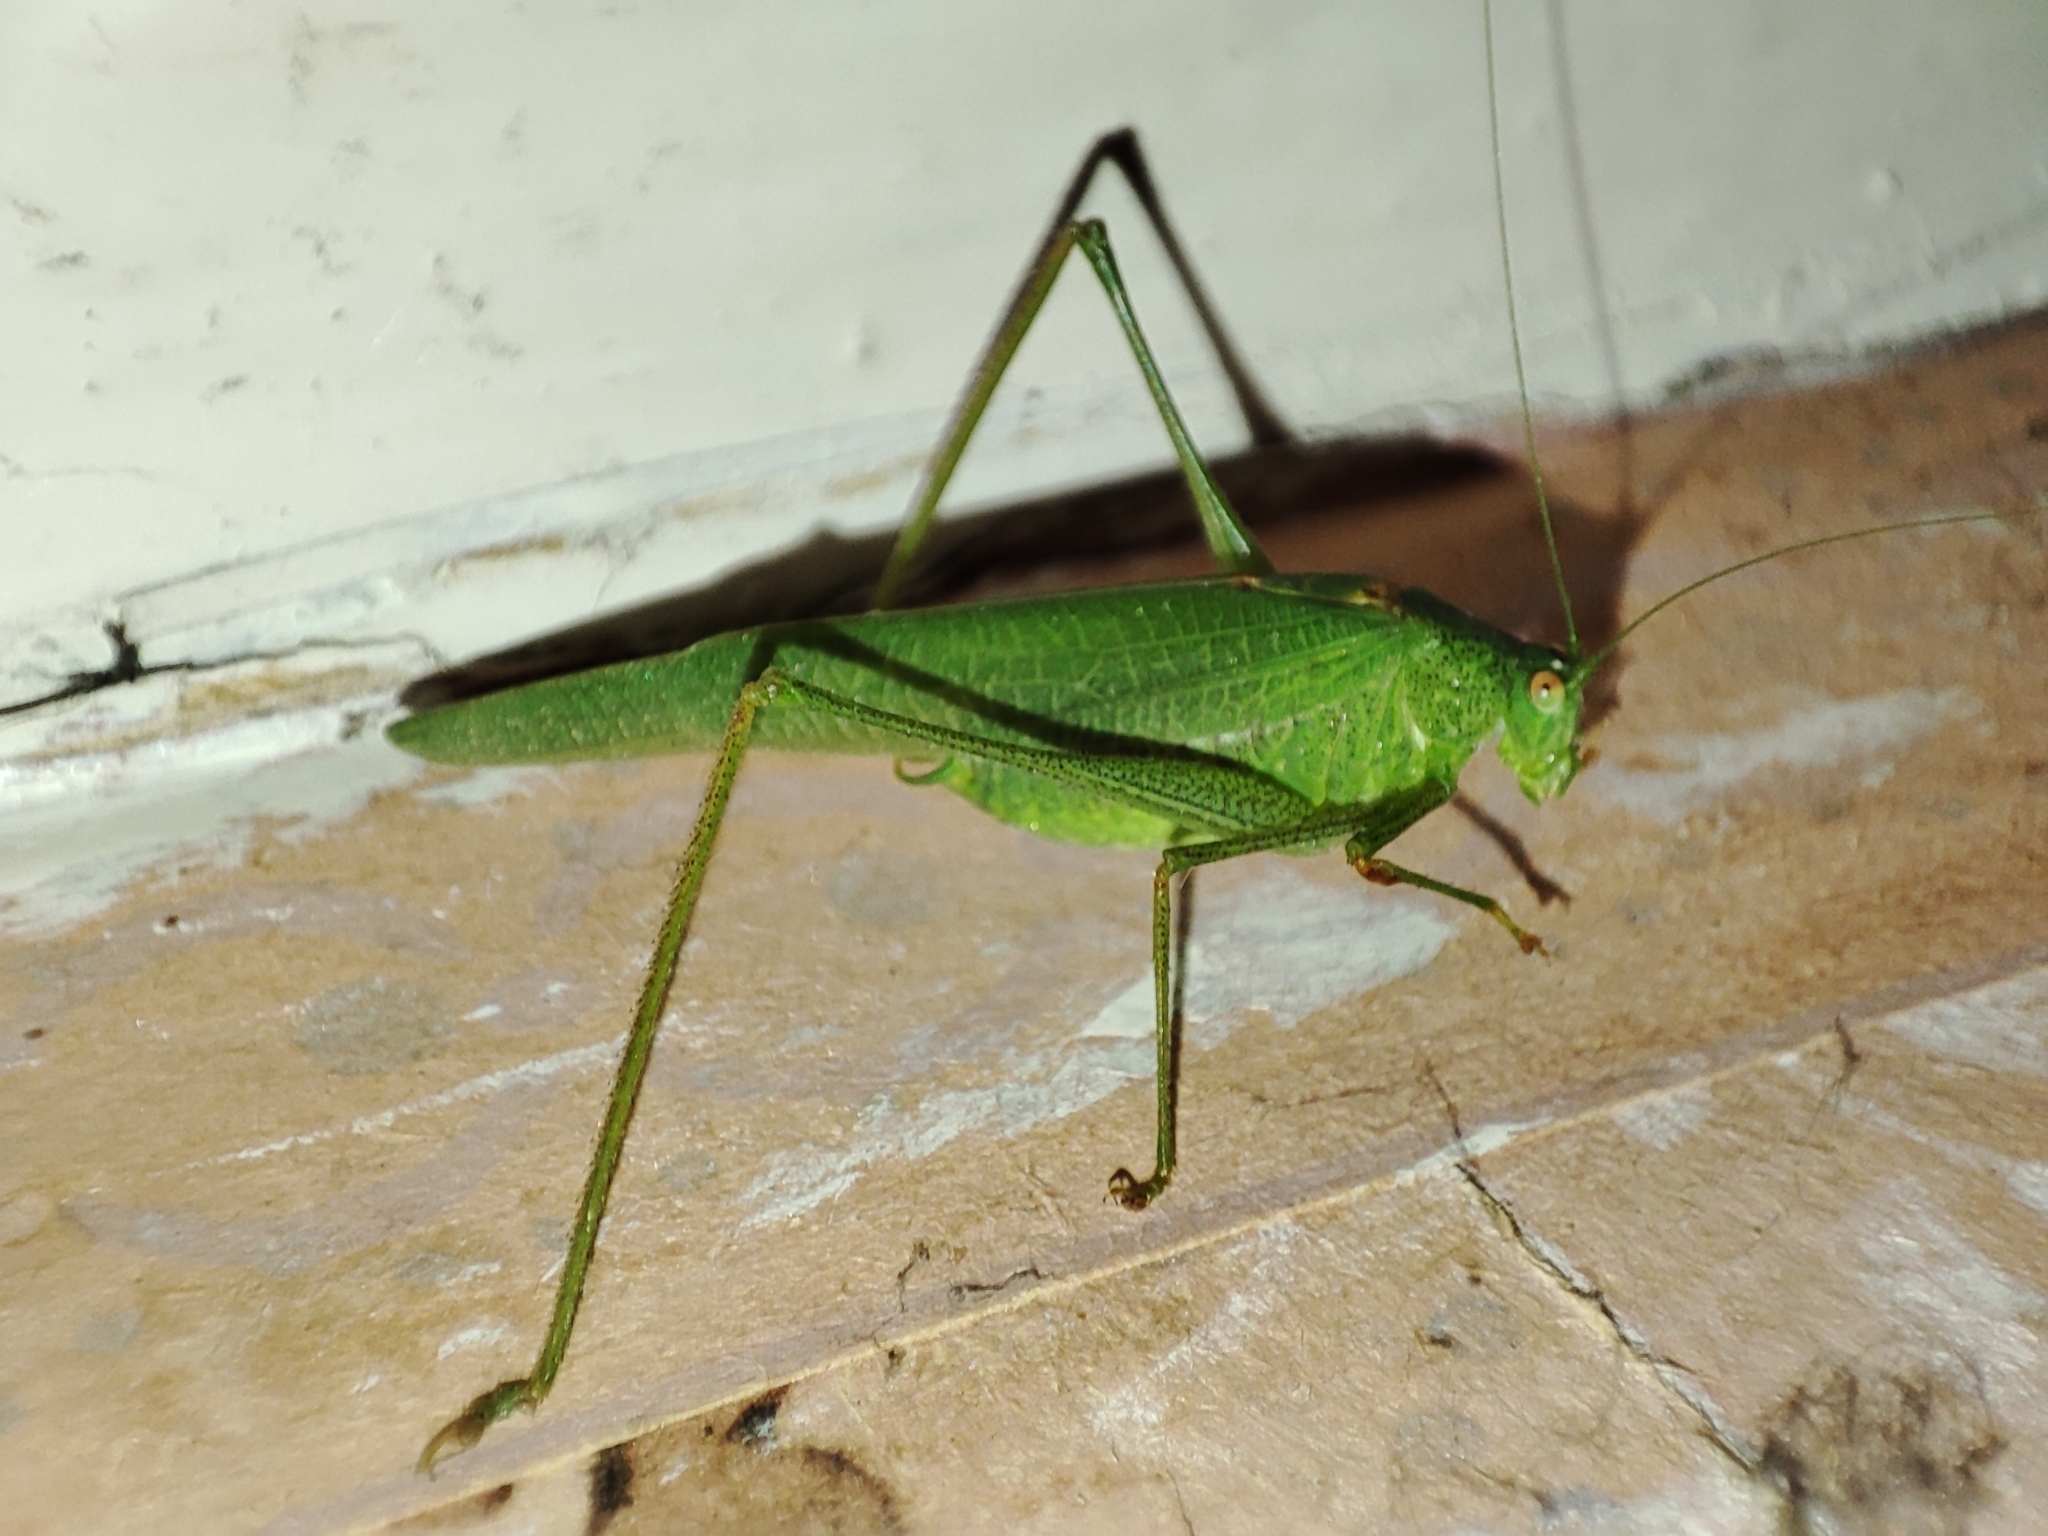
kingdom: Animalia
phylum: Arthropoda
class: Insecta
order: Orthoptera
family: Tettigoniidae
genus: Phaneroptera
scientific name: Phaneroptera nana
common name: Southern sickle bush-cricket
